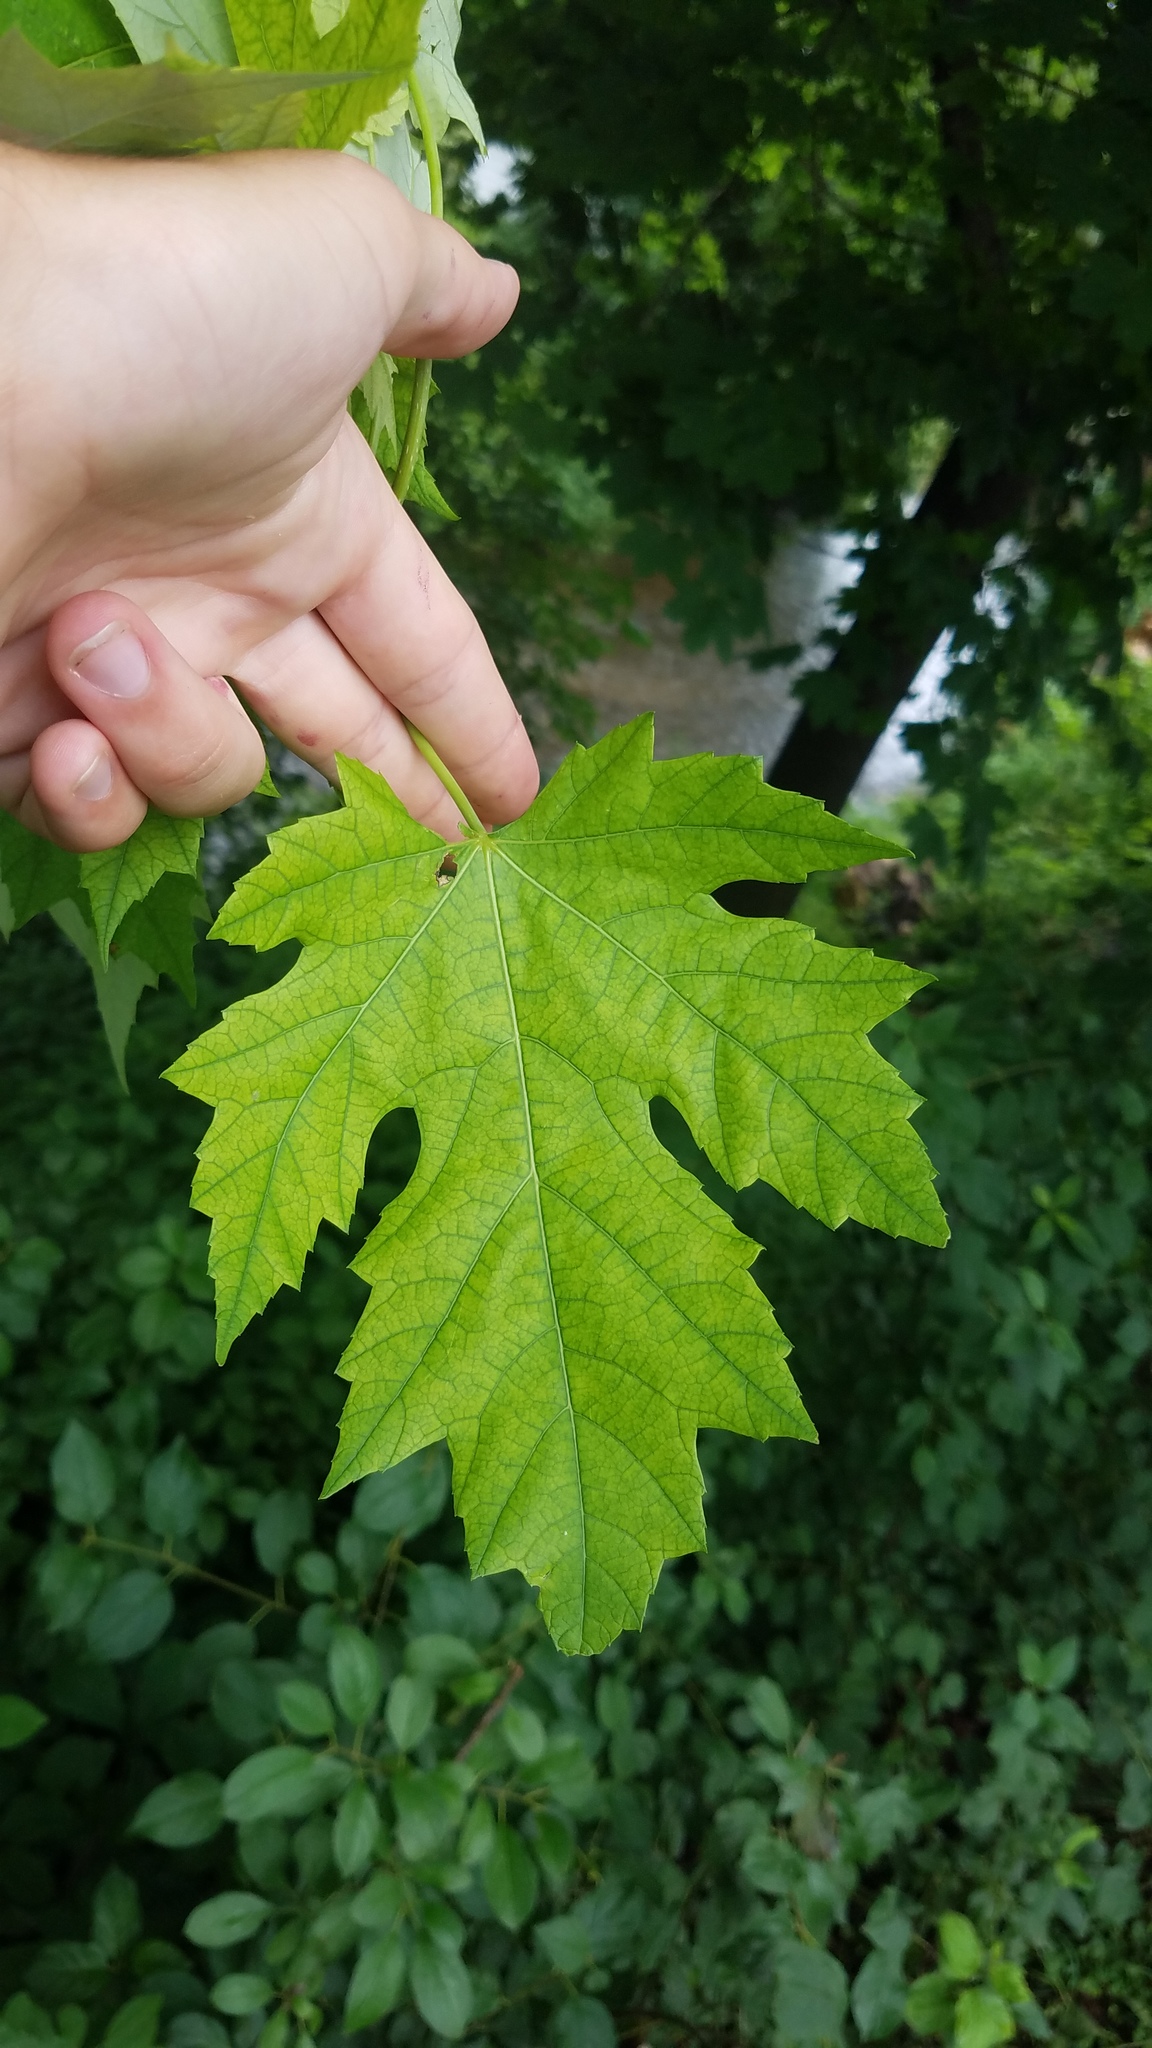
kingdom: Plantae
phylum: Tracheophyta
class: Magnoliopsida
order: Sapindales
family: Sapindaceae
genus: Acer
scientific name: Acer saccharinum
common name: Silver maple
